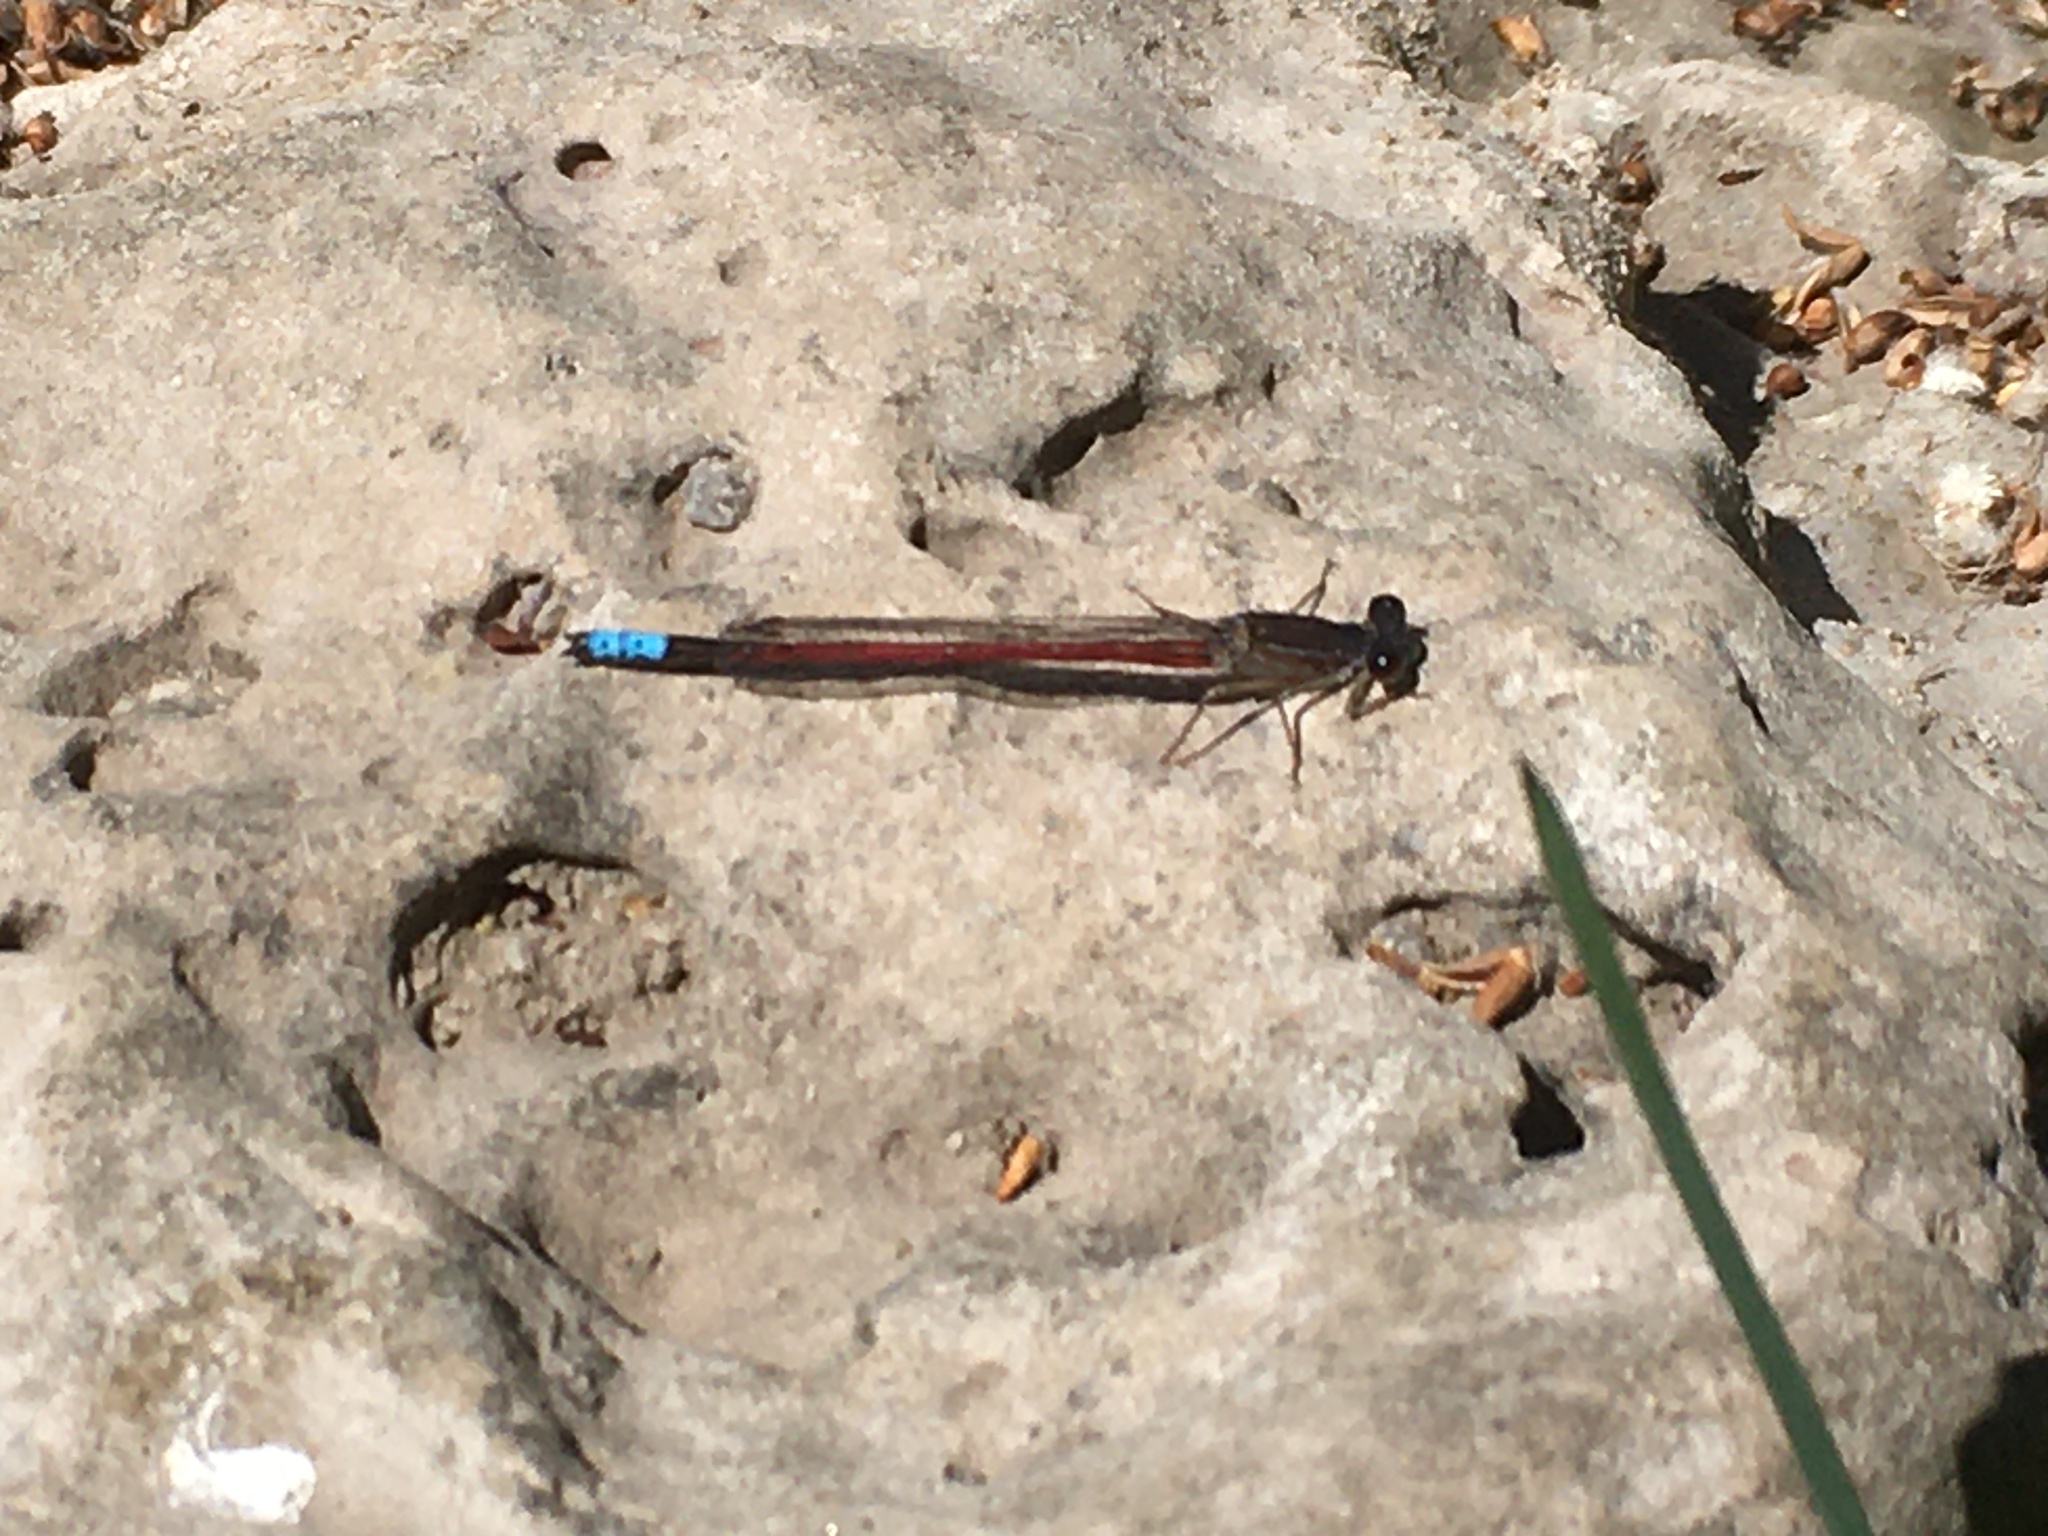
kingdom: Animalia
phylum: Arthropoda
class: Insecta
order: Odonata
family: Coenagrionidae
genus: Oxyagrion
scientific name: Oxyagrion hempeli
